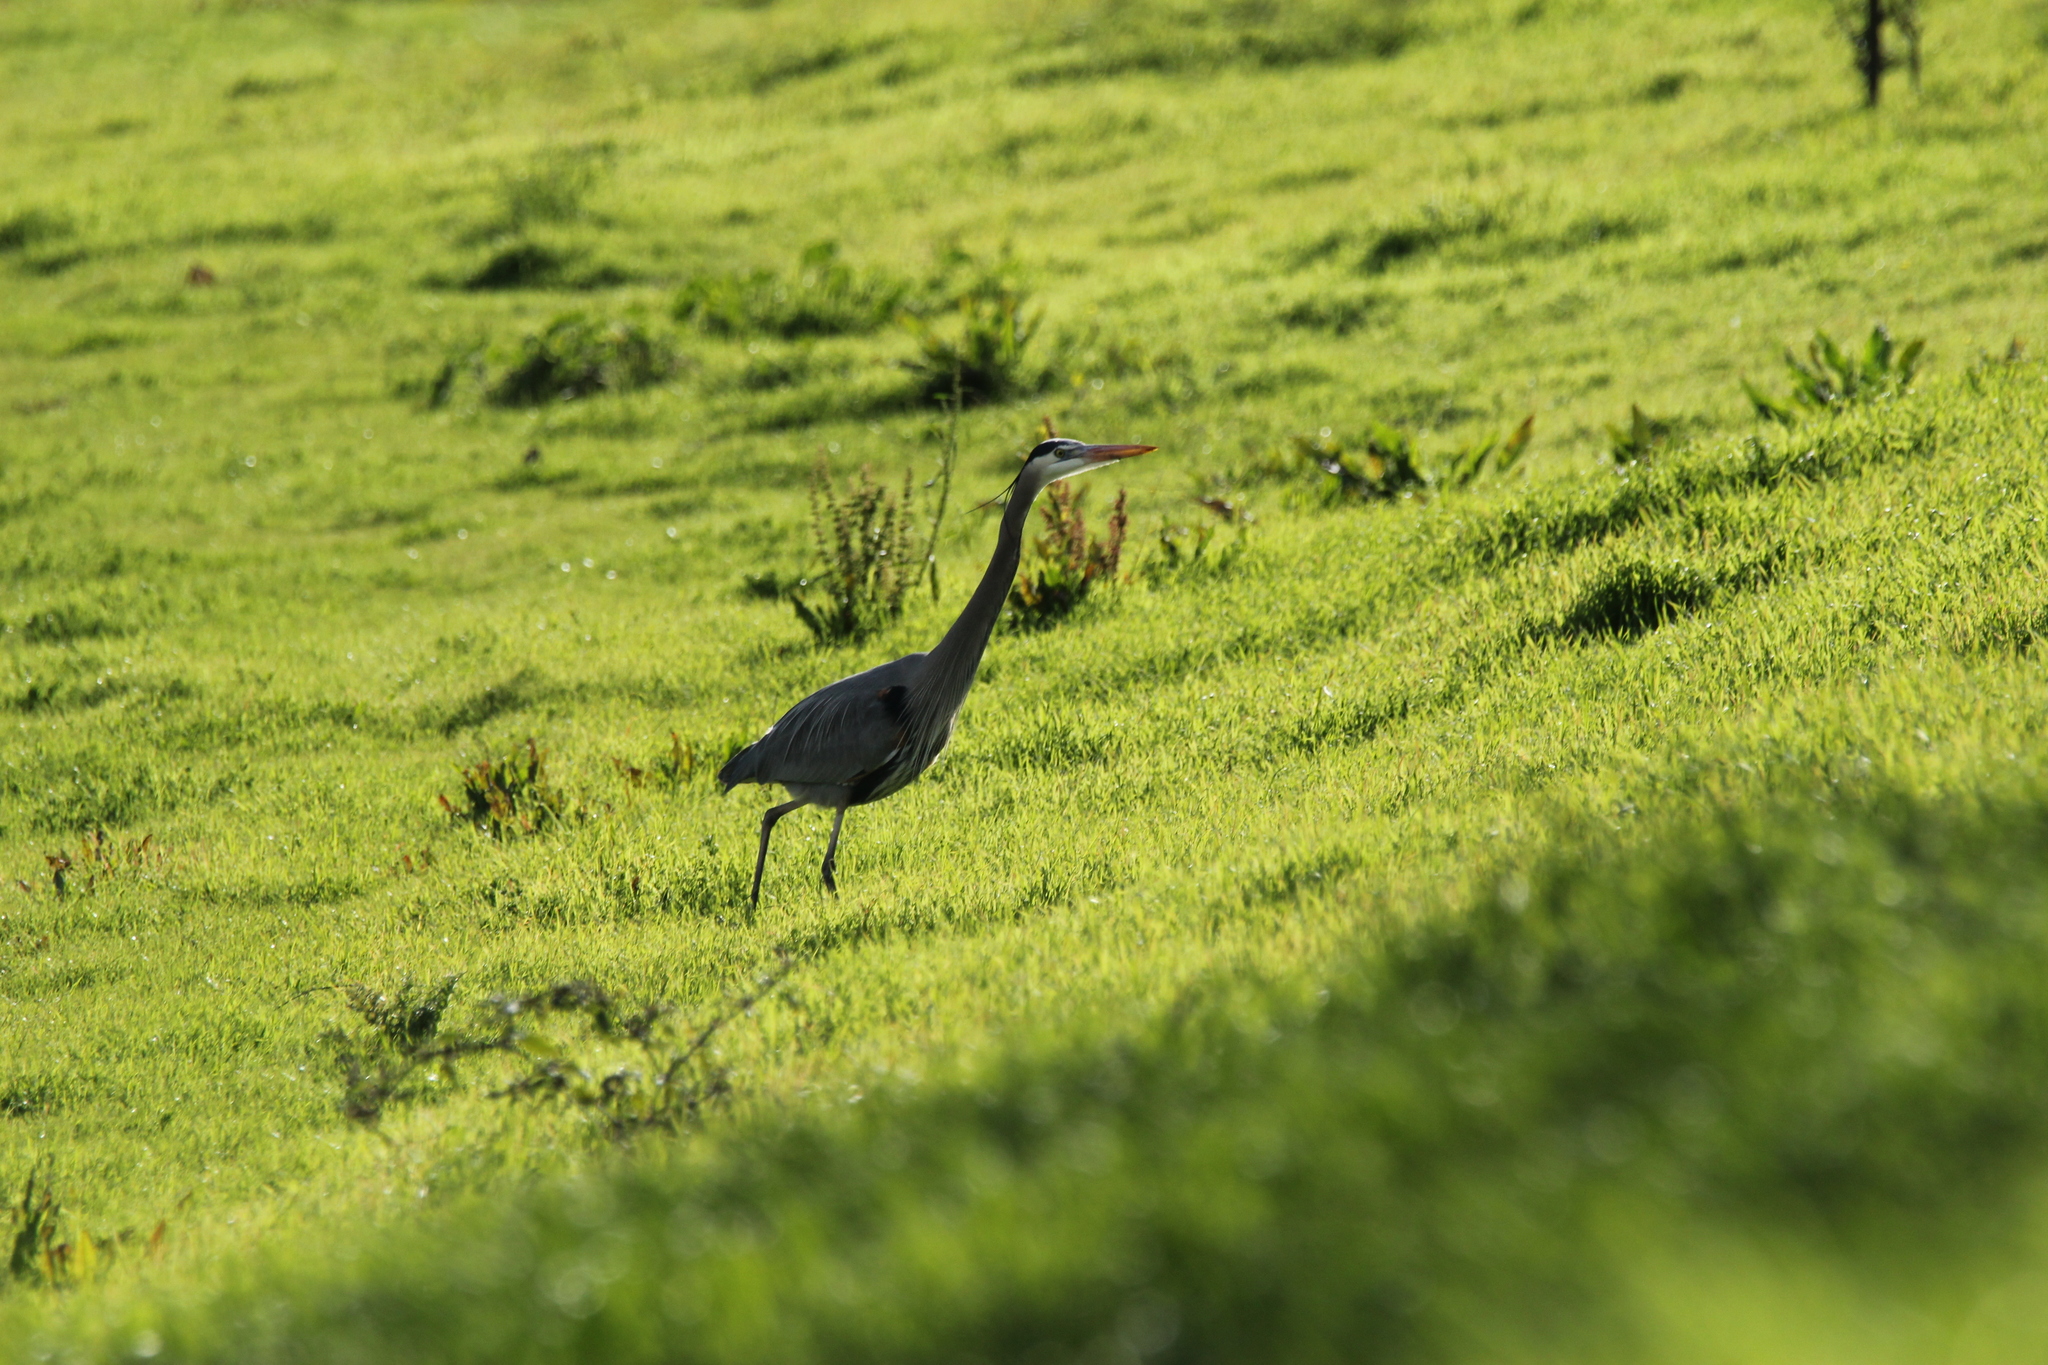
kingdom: Animalia
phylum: Chordata
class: Aves
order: Pelecaniformes
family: Ardeidae
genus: Ardea
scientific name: Ardea herodias
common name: Great blue heron
